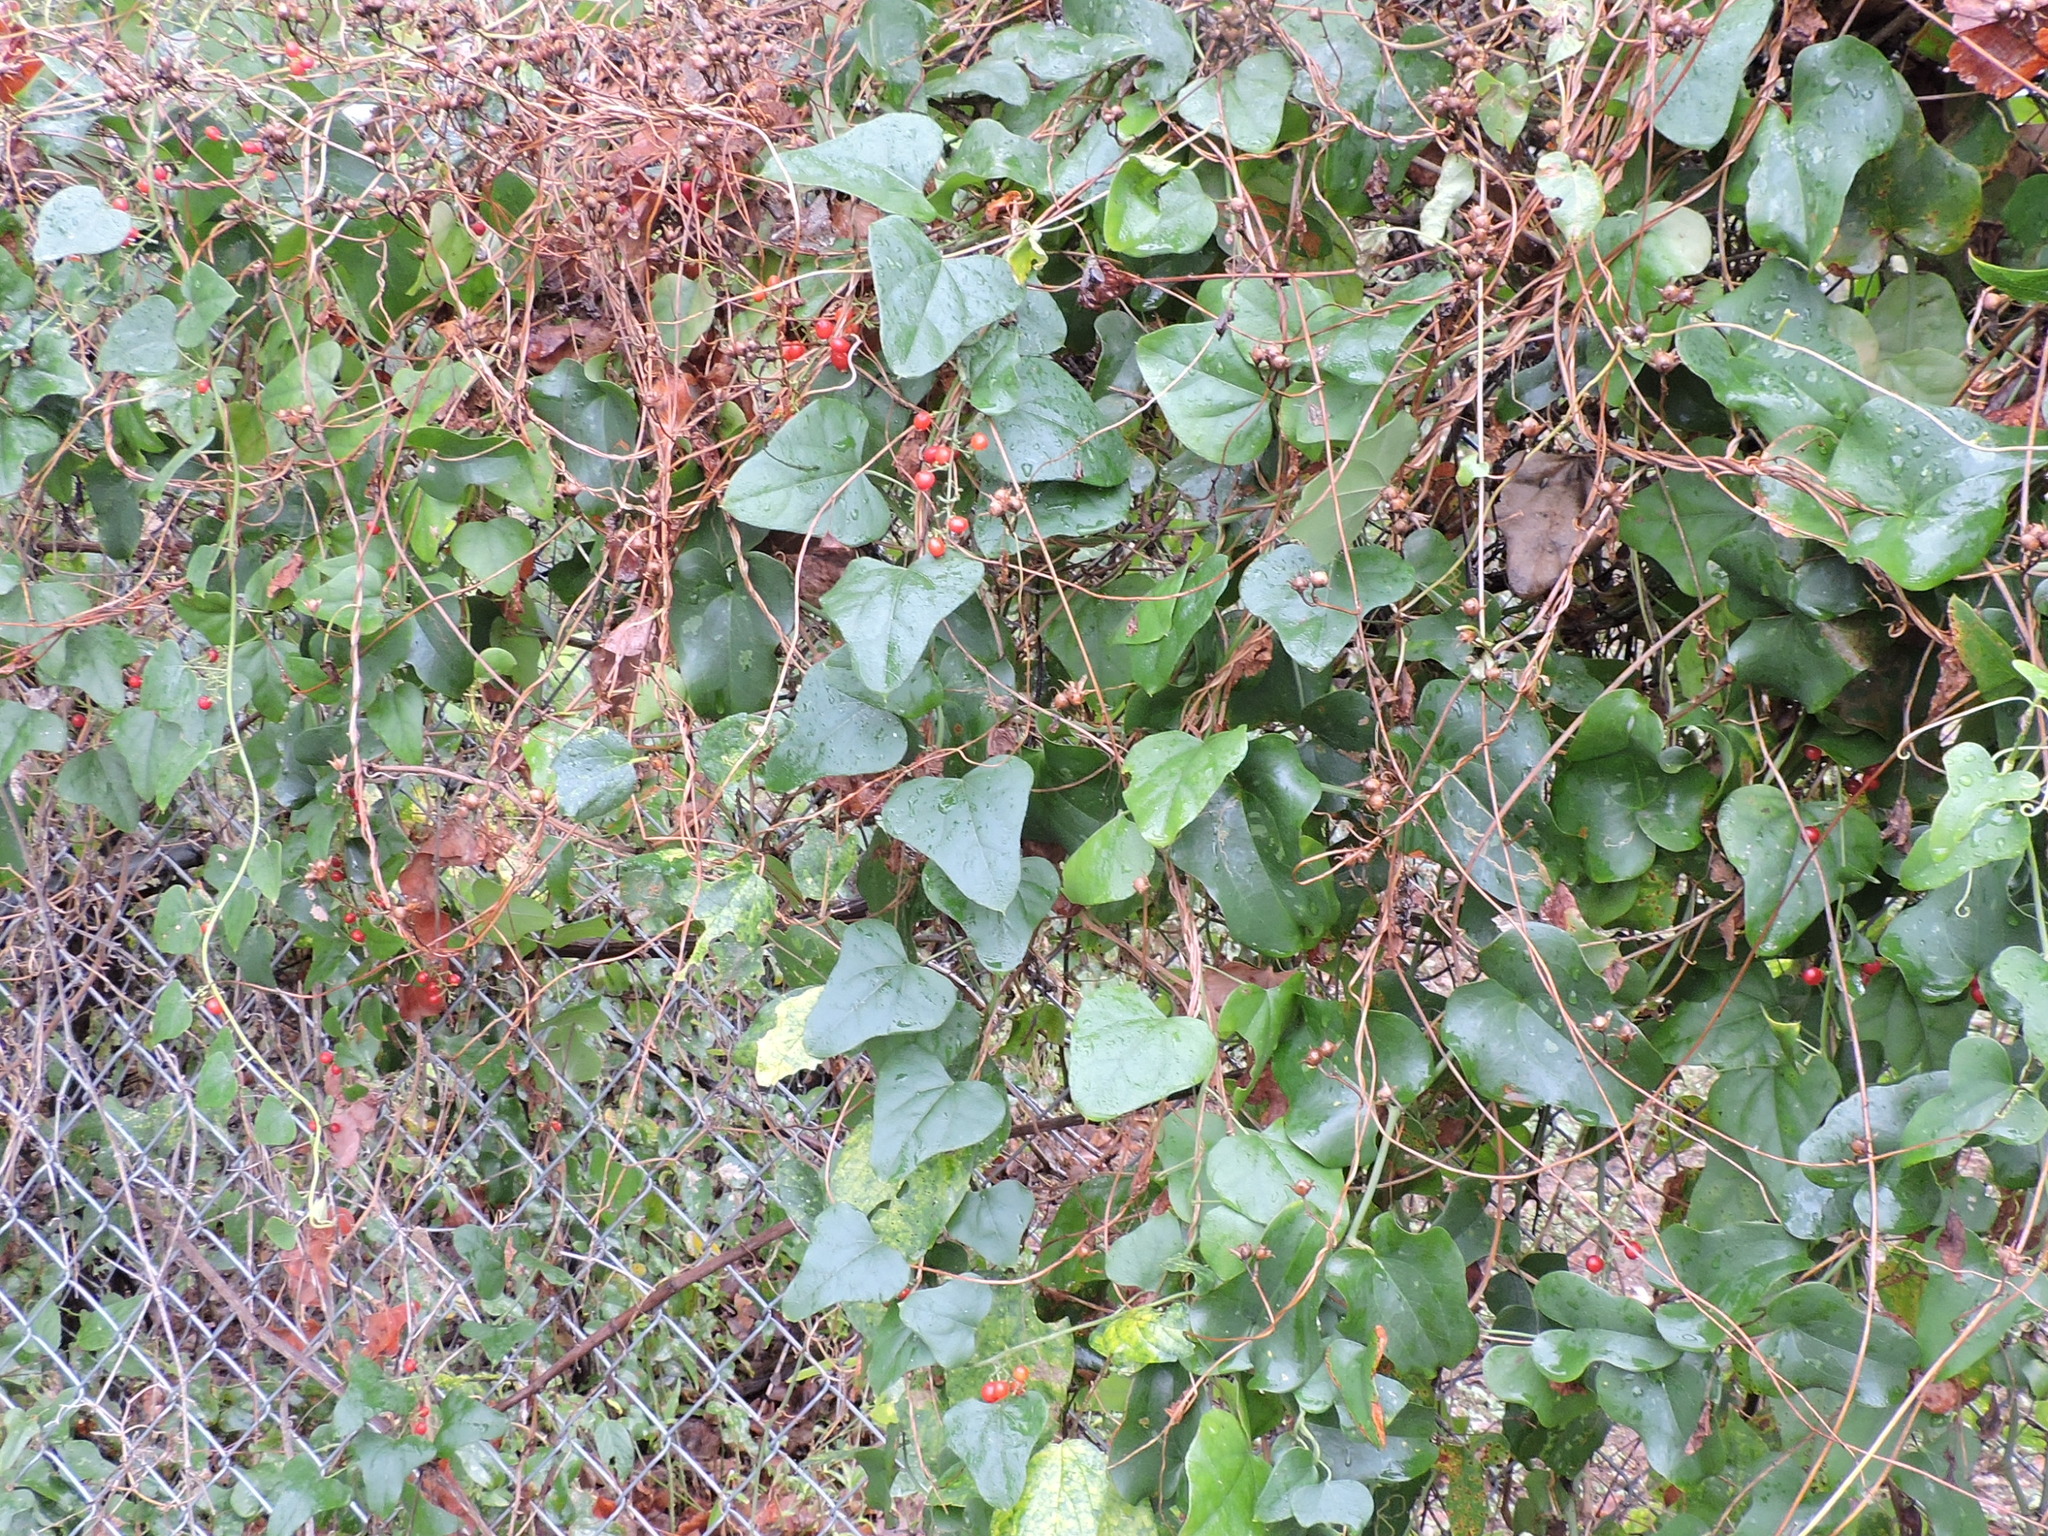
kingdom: Plantae
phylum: Tracheophyta
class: Magnoliopsida
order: Ranunculales
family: Menispermaceae
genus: Cocculus
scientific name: Cocculus carolinus
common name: Carolina moonseed
